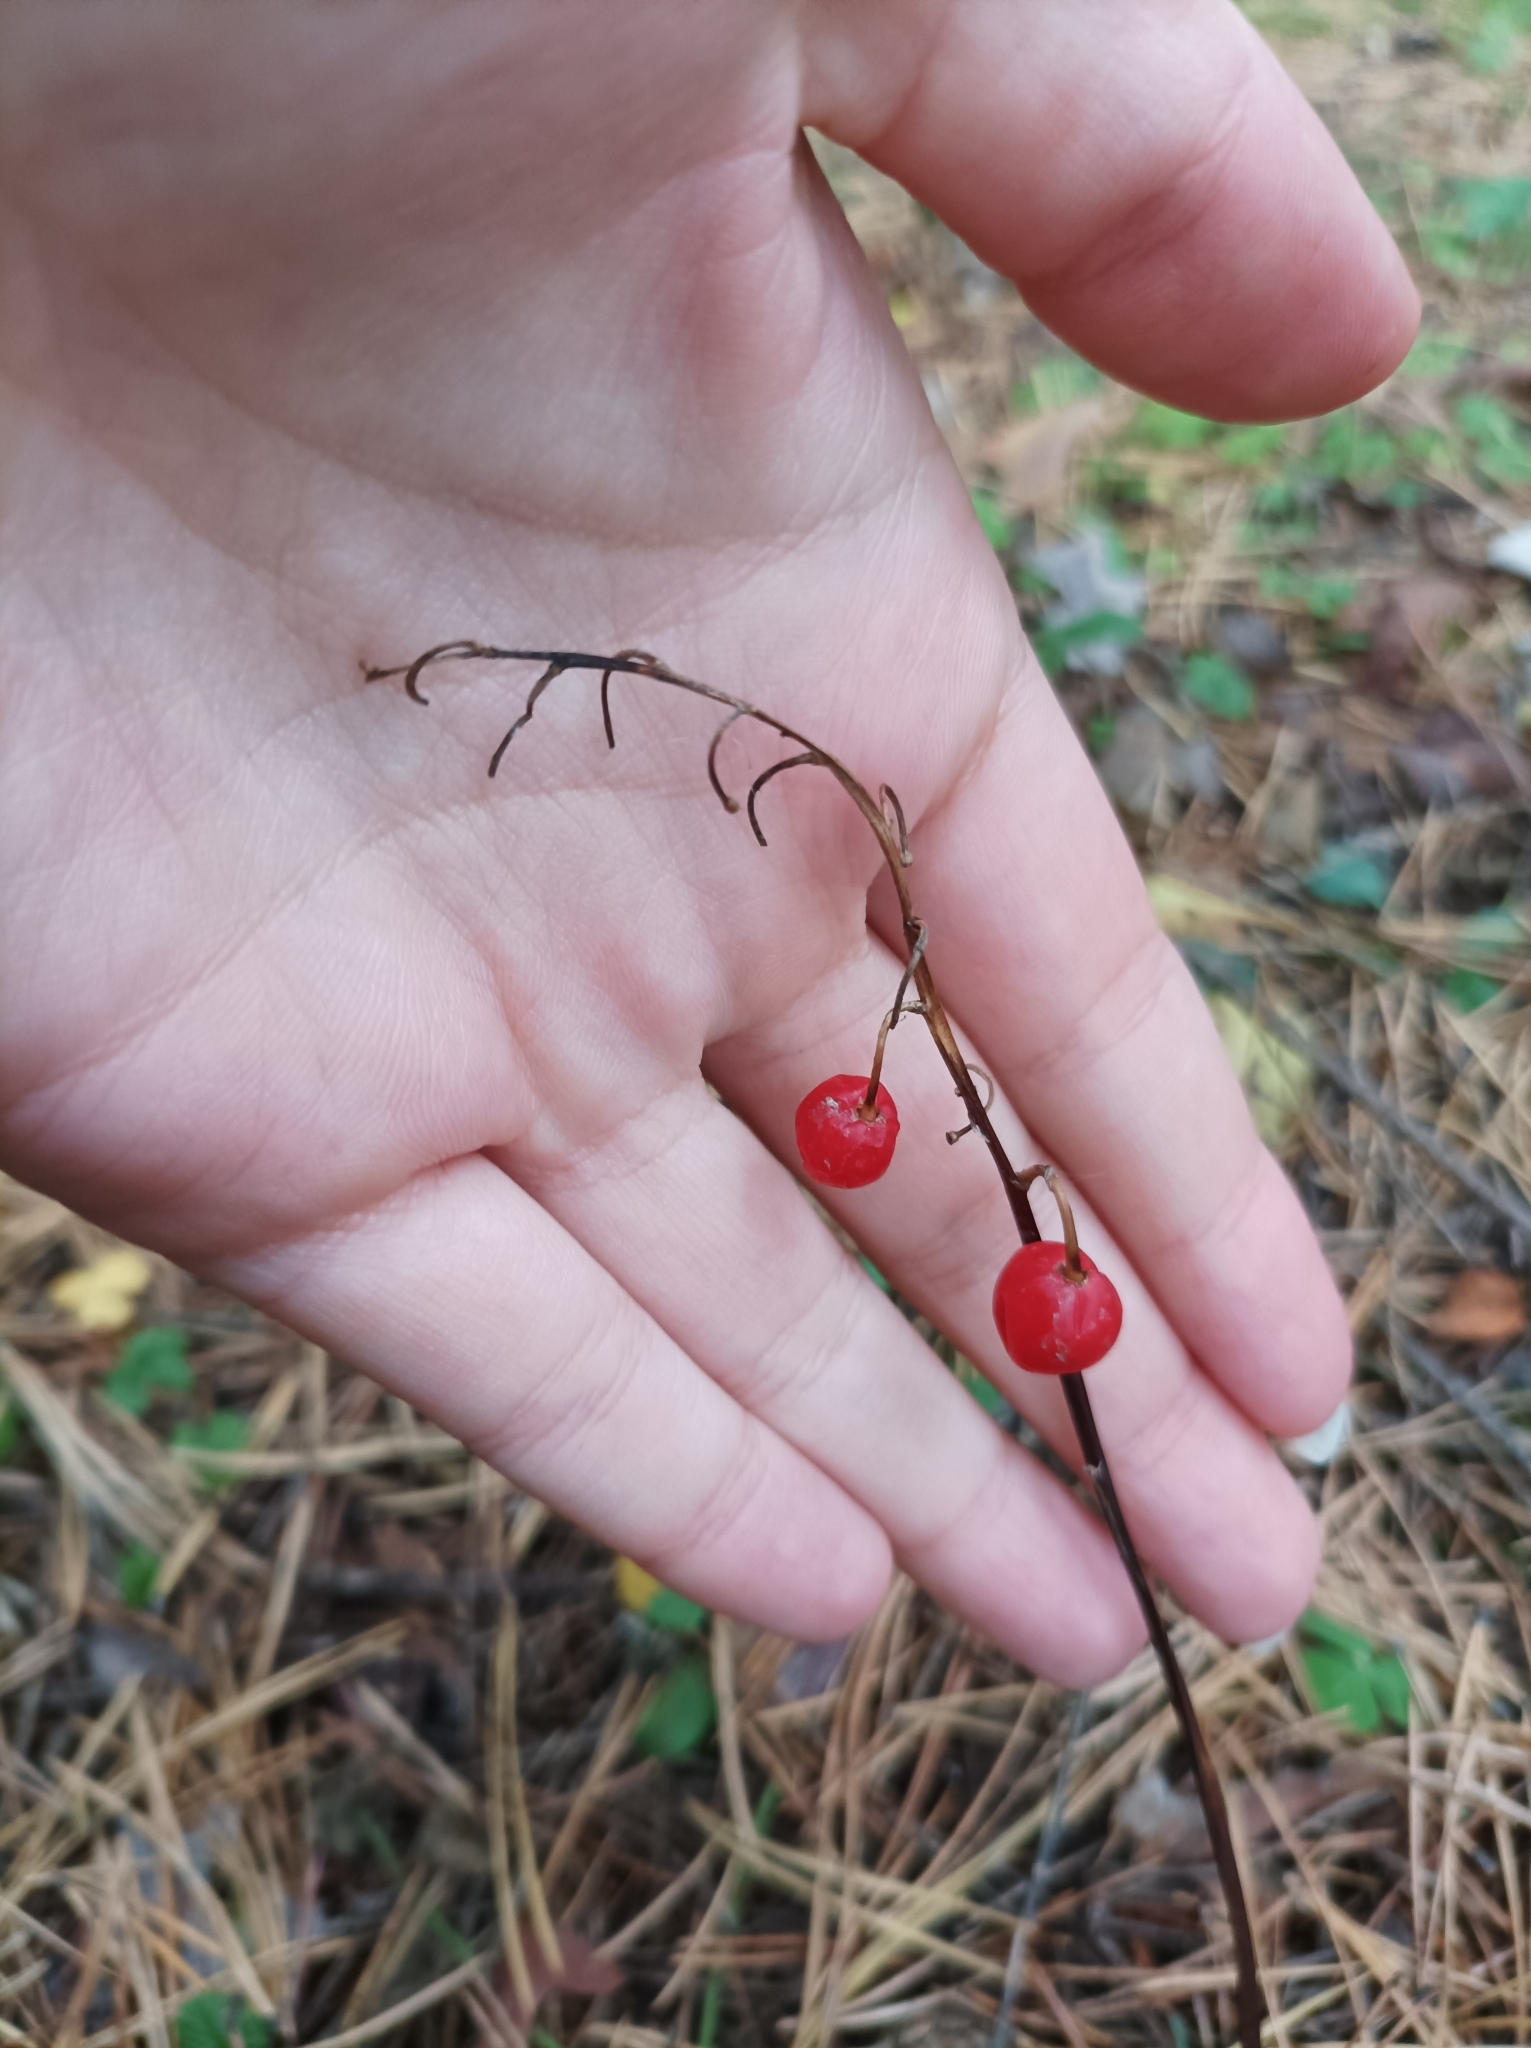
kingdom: Plantae
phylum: Tracheophyta
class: Liliopsida
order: Asparagales
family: Asparagaceae
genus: Convallaria
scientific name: Convallaria majalis
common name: Lily-of-the-valley
